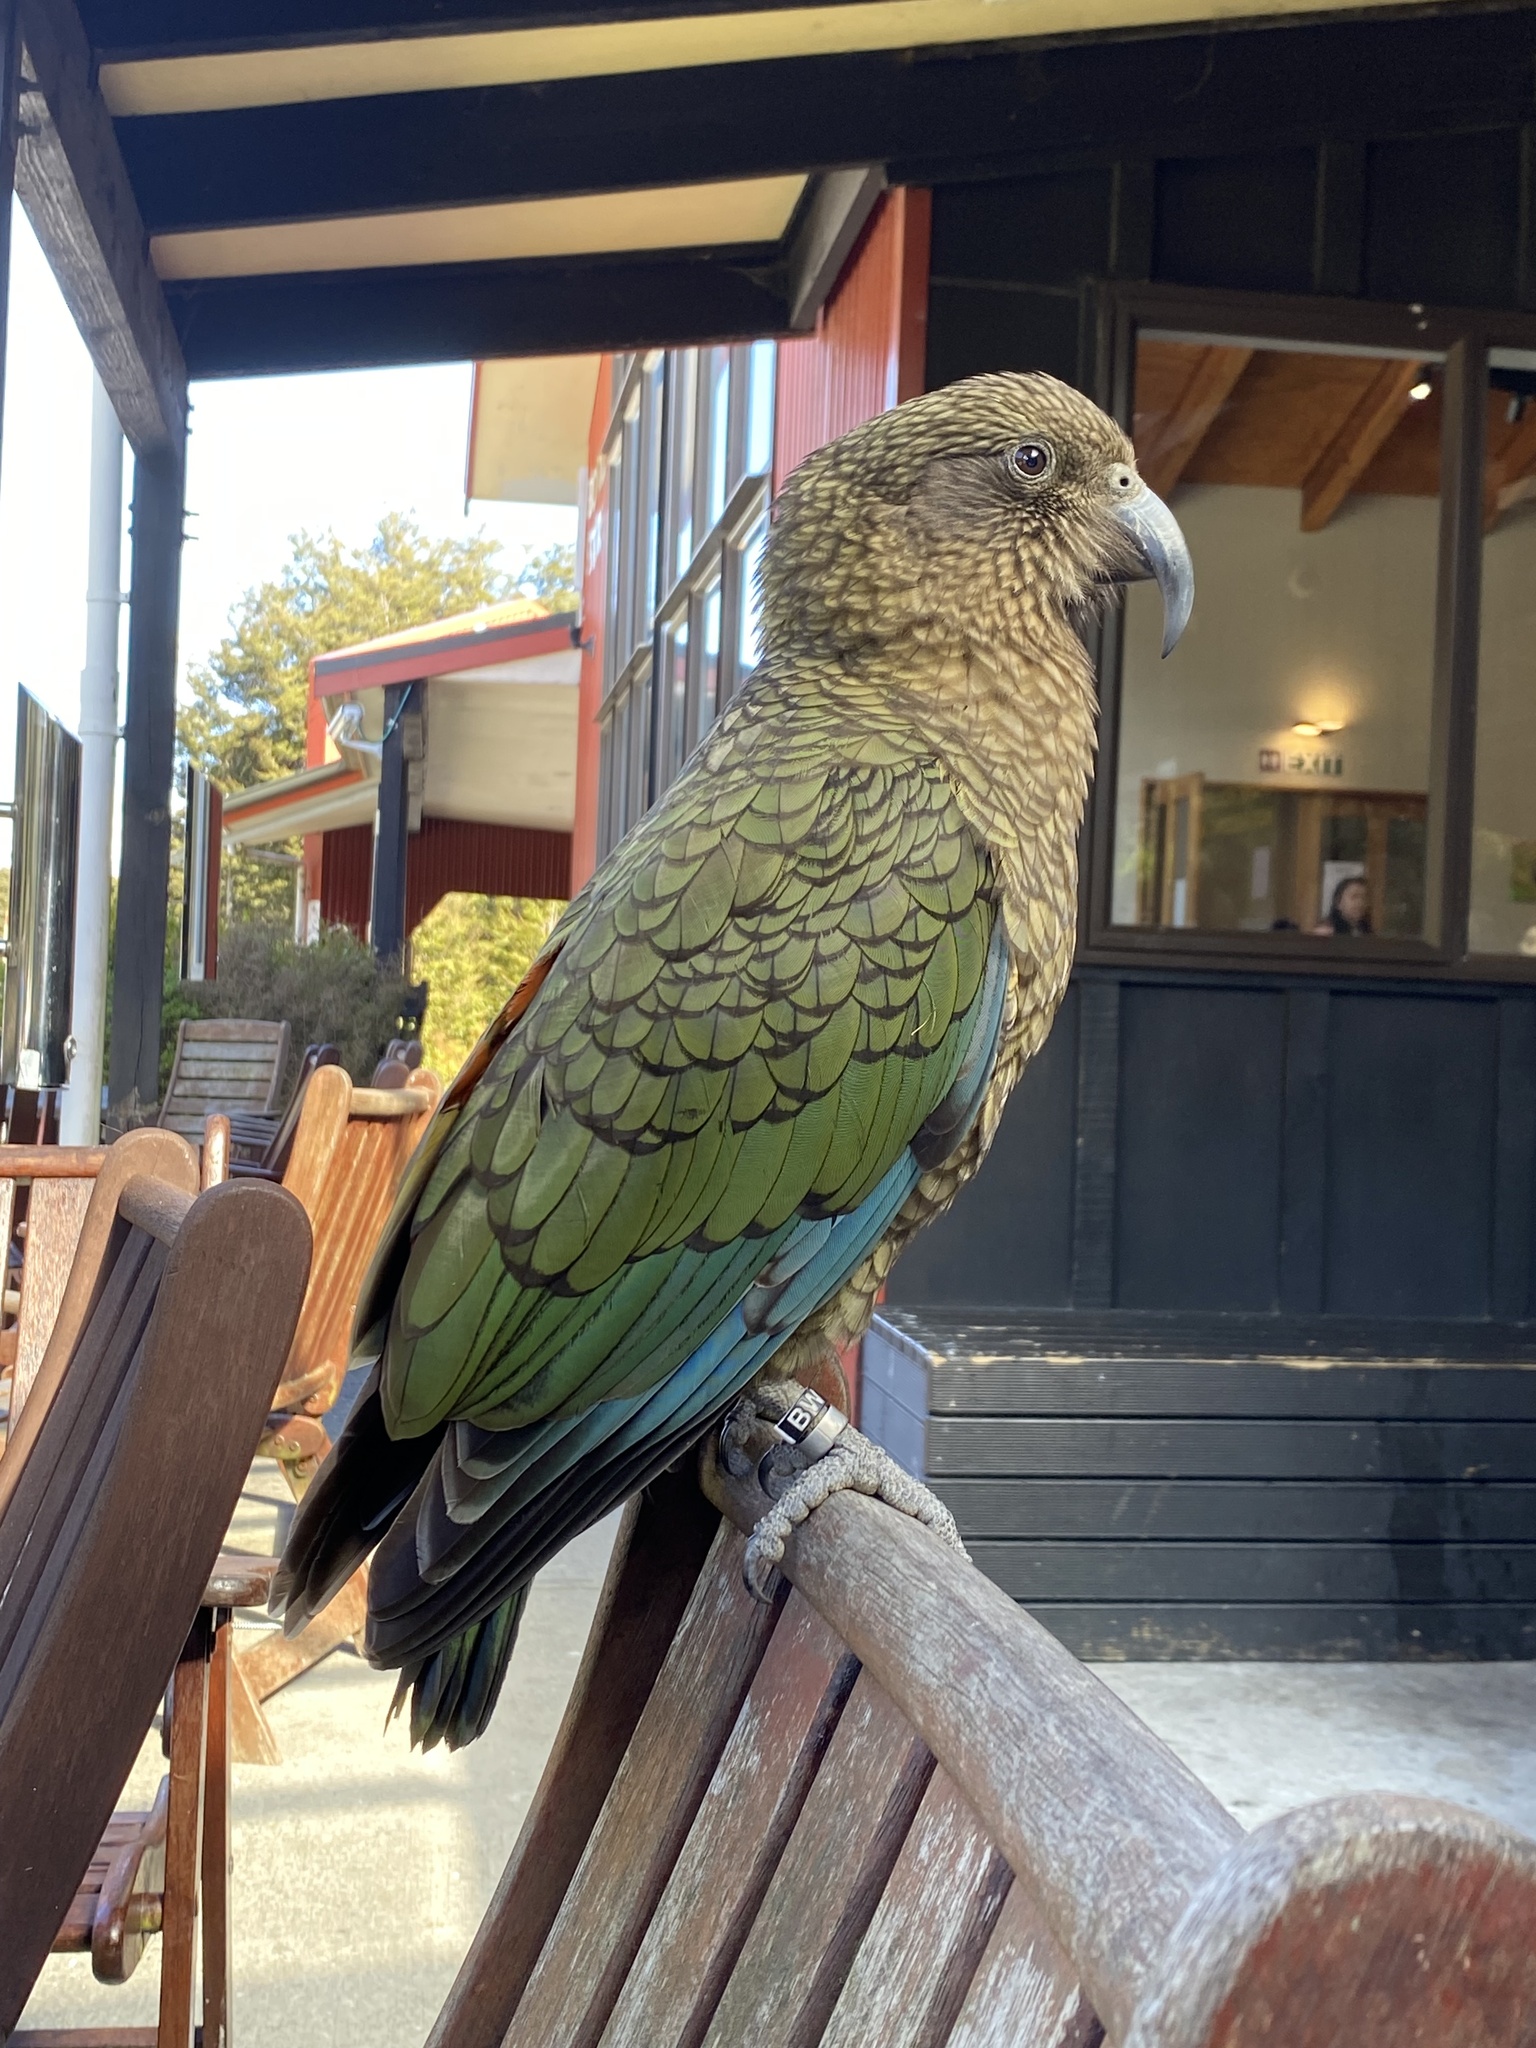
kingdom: Animalia
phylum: Chordata
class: Aves
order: Psittaciformes
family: Psittacidae
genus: Nestor
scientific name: Nestor notabilis
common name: Kea
